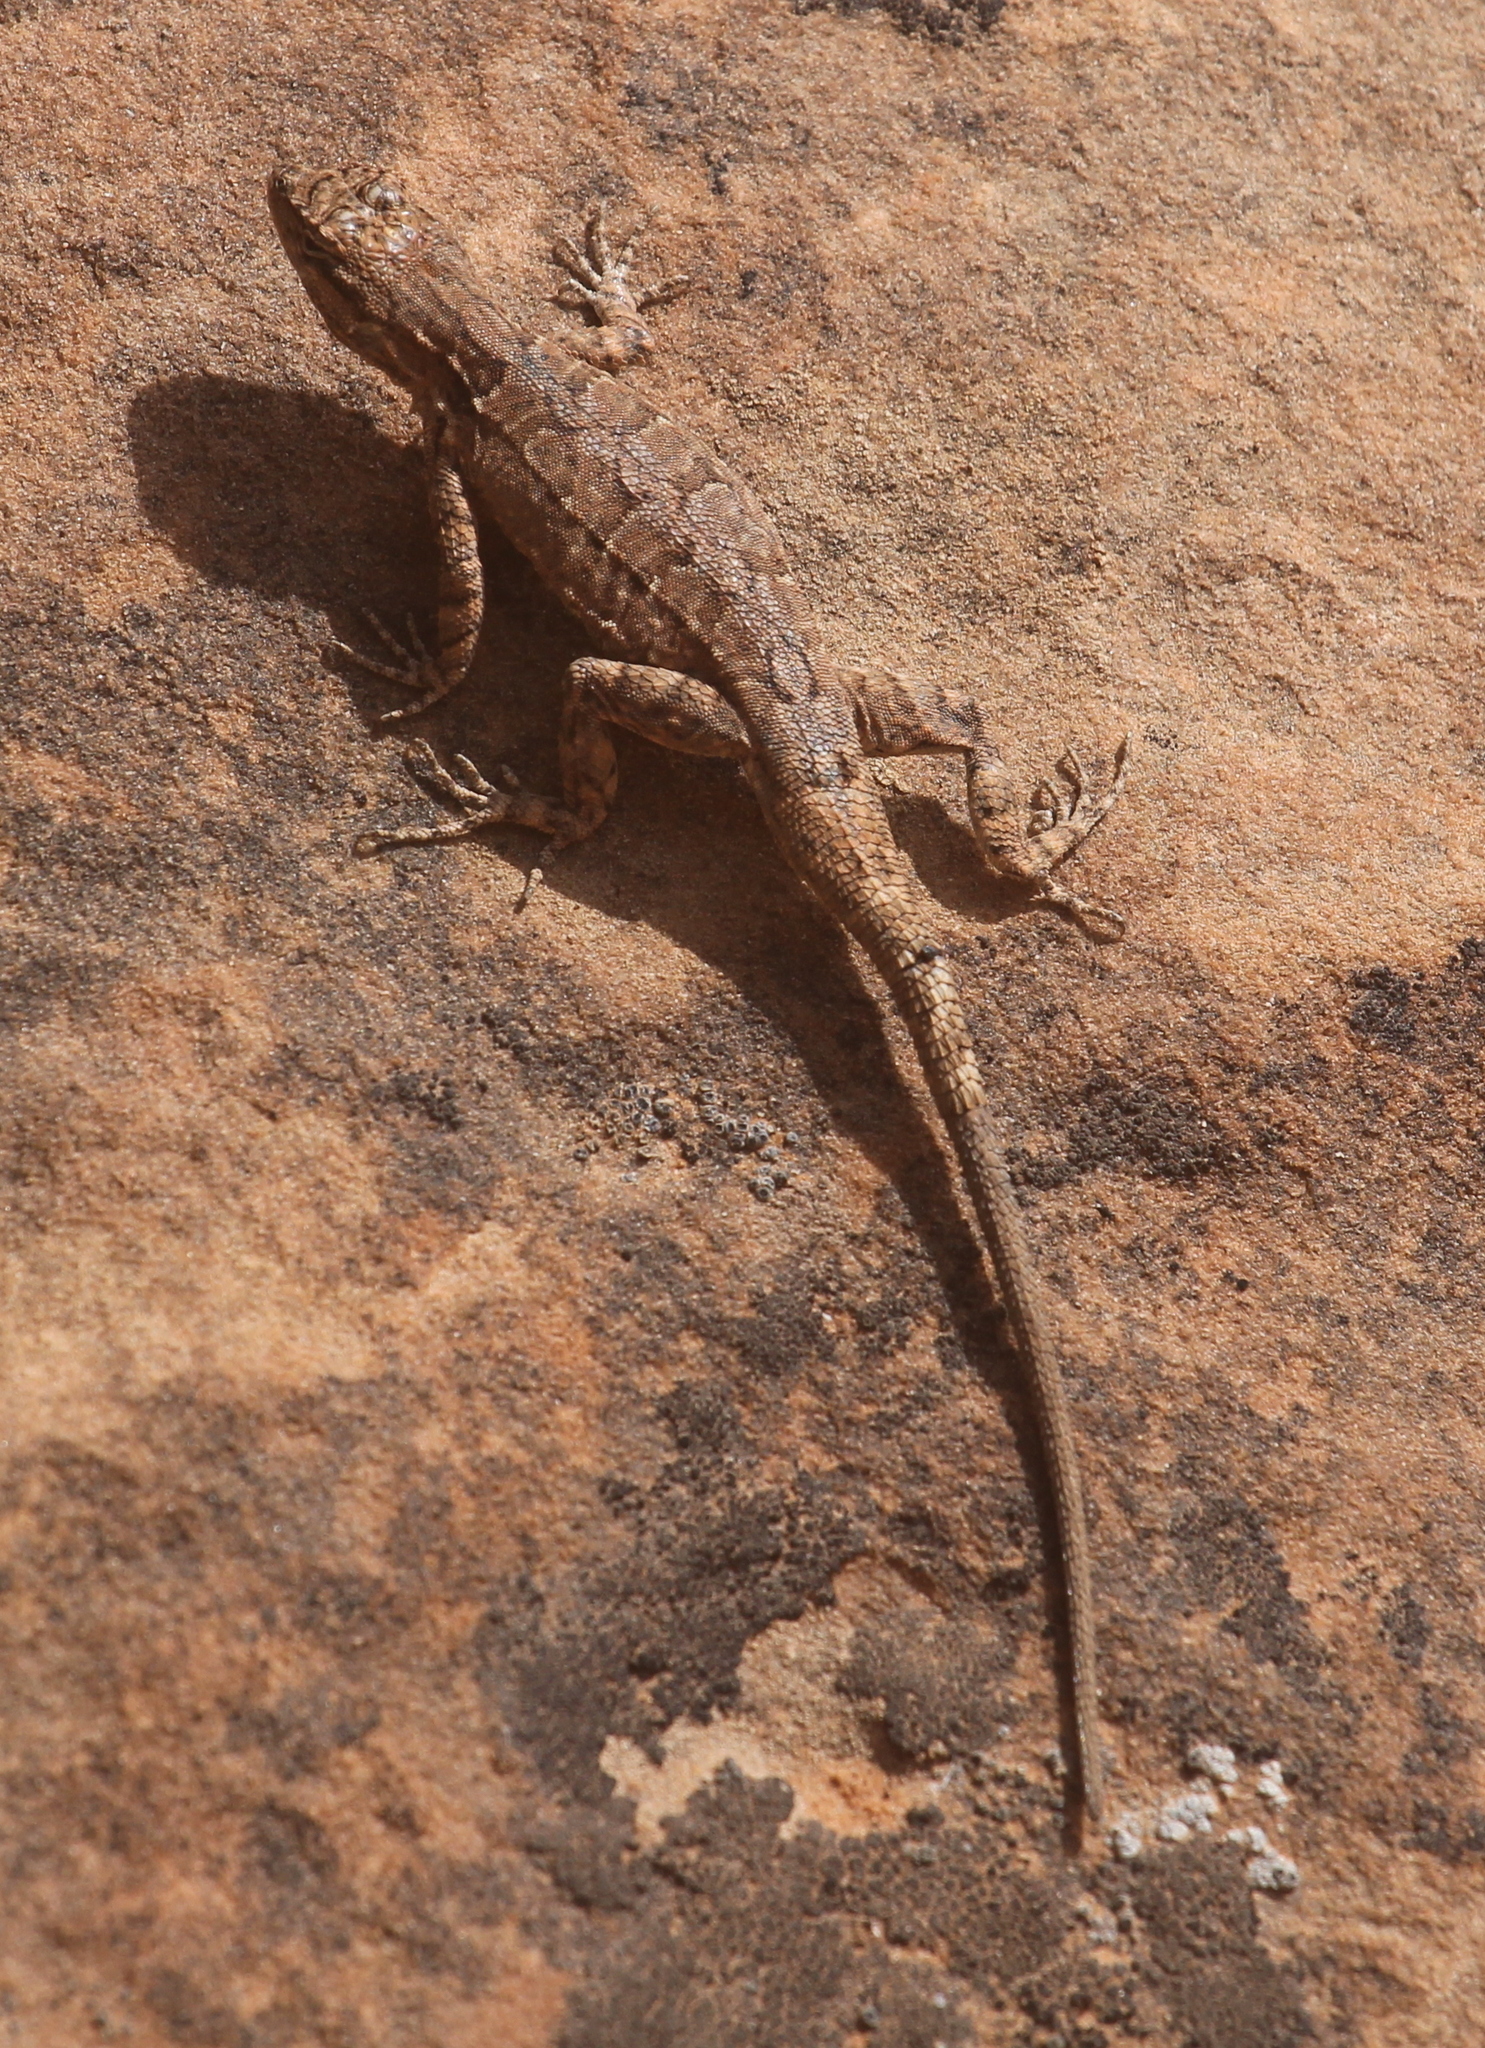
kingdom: Animalia
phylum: Chordata
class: Squamata
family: Phrynosomatidae
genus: Urosaurus
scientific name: Urosaurus ornatus
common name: Ornate tree lizard
